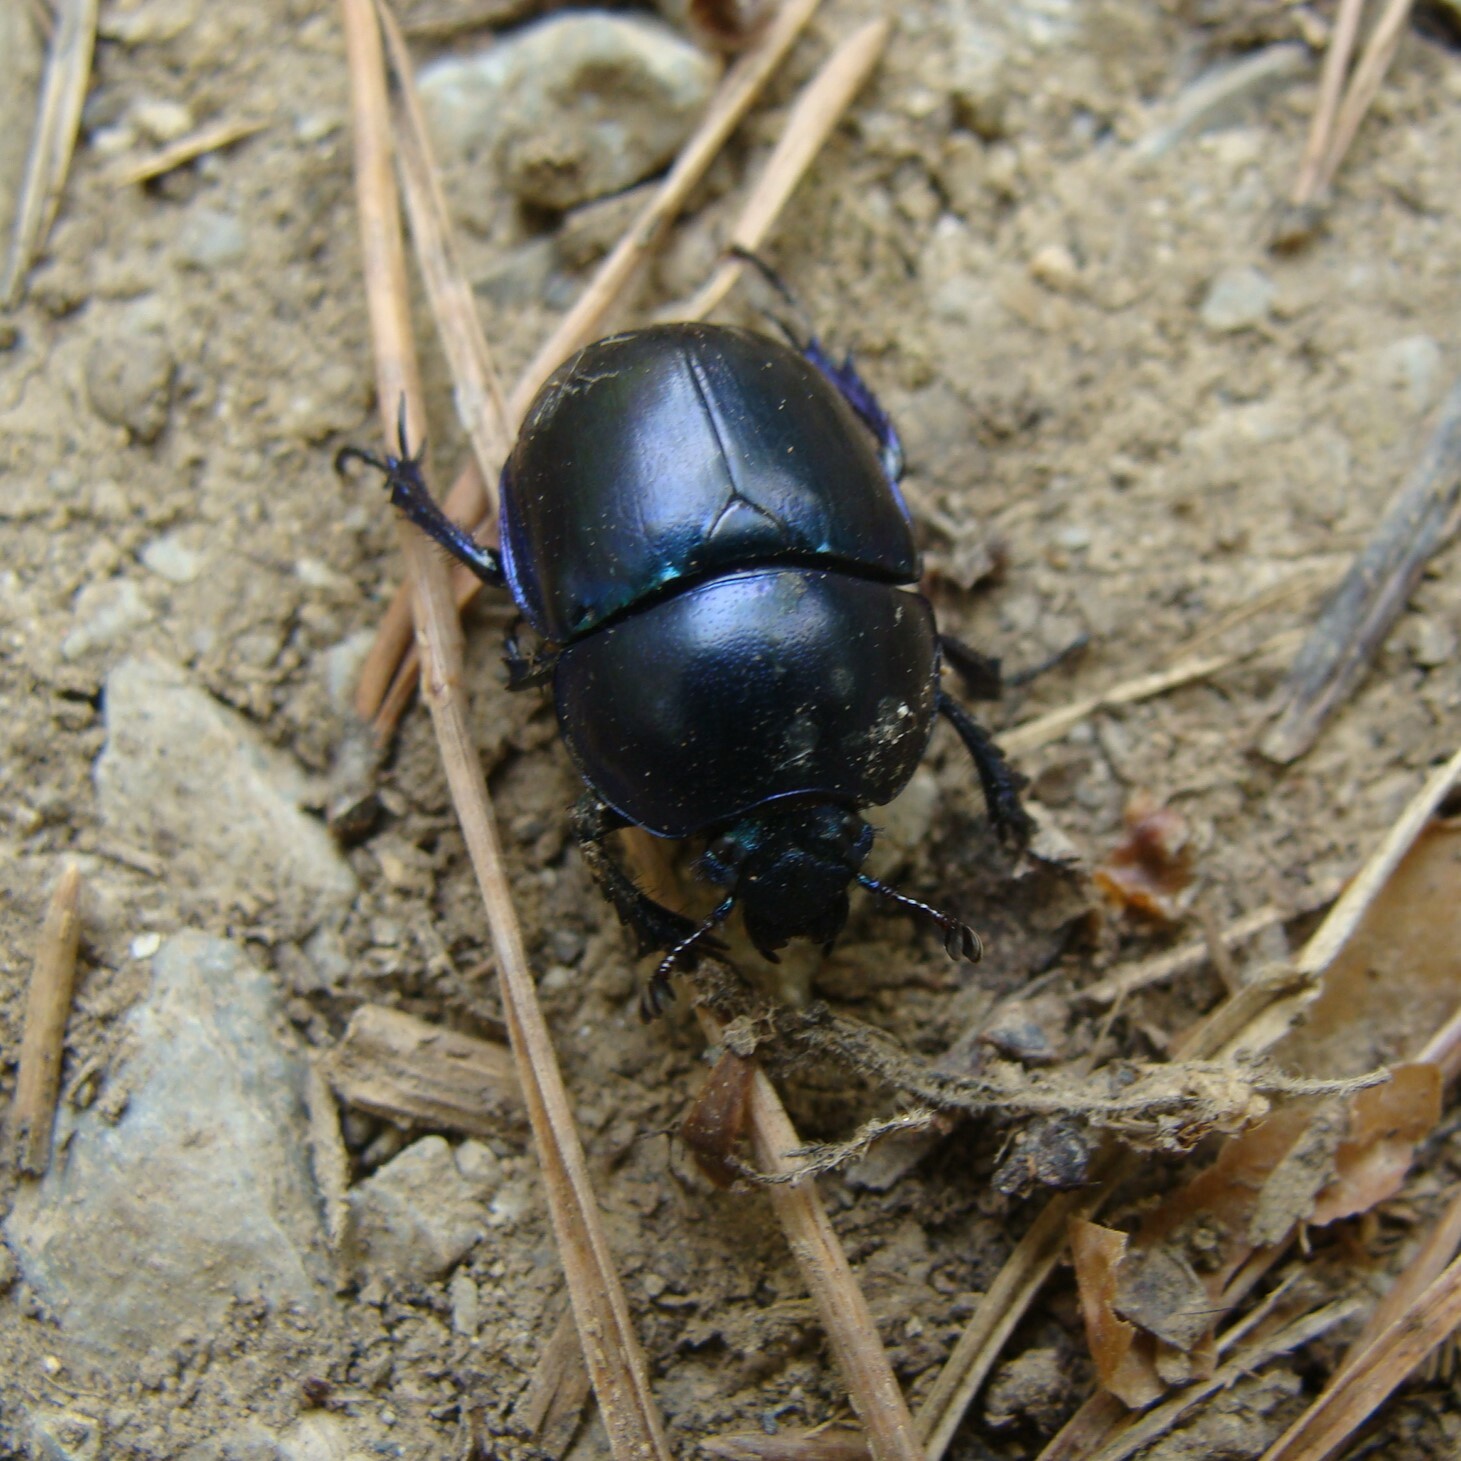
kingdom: Animalia
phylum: Arthropoda
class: Insecta
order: Coleoptera
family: Geotrupidae
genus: Trypocopris
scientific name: Trypocopris vernalis
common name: Spring dumbledor
